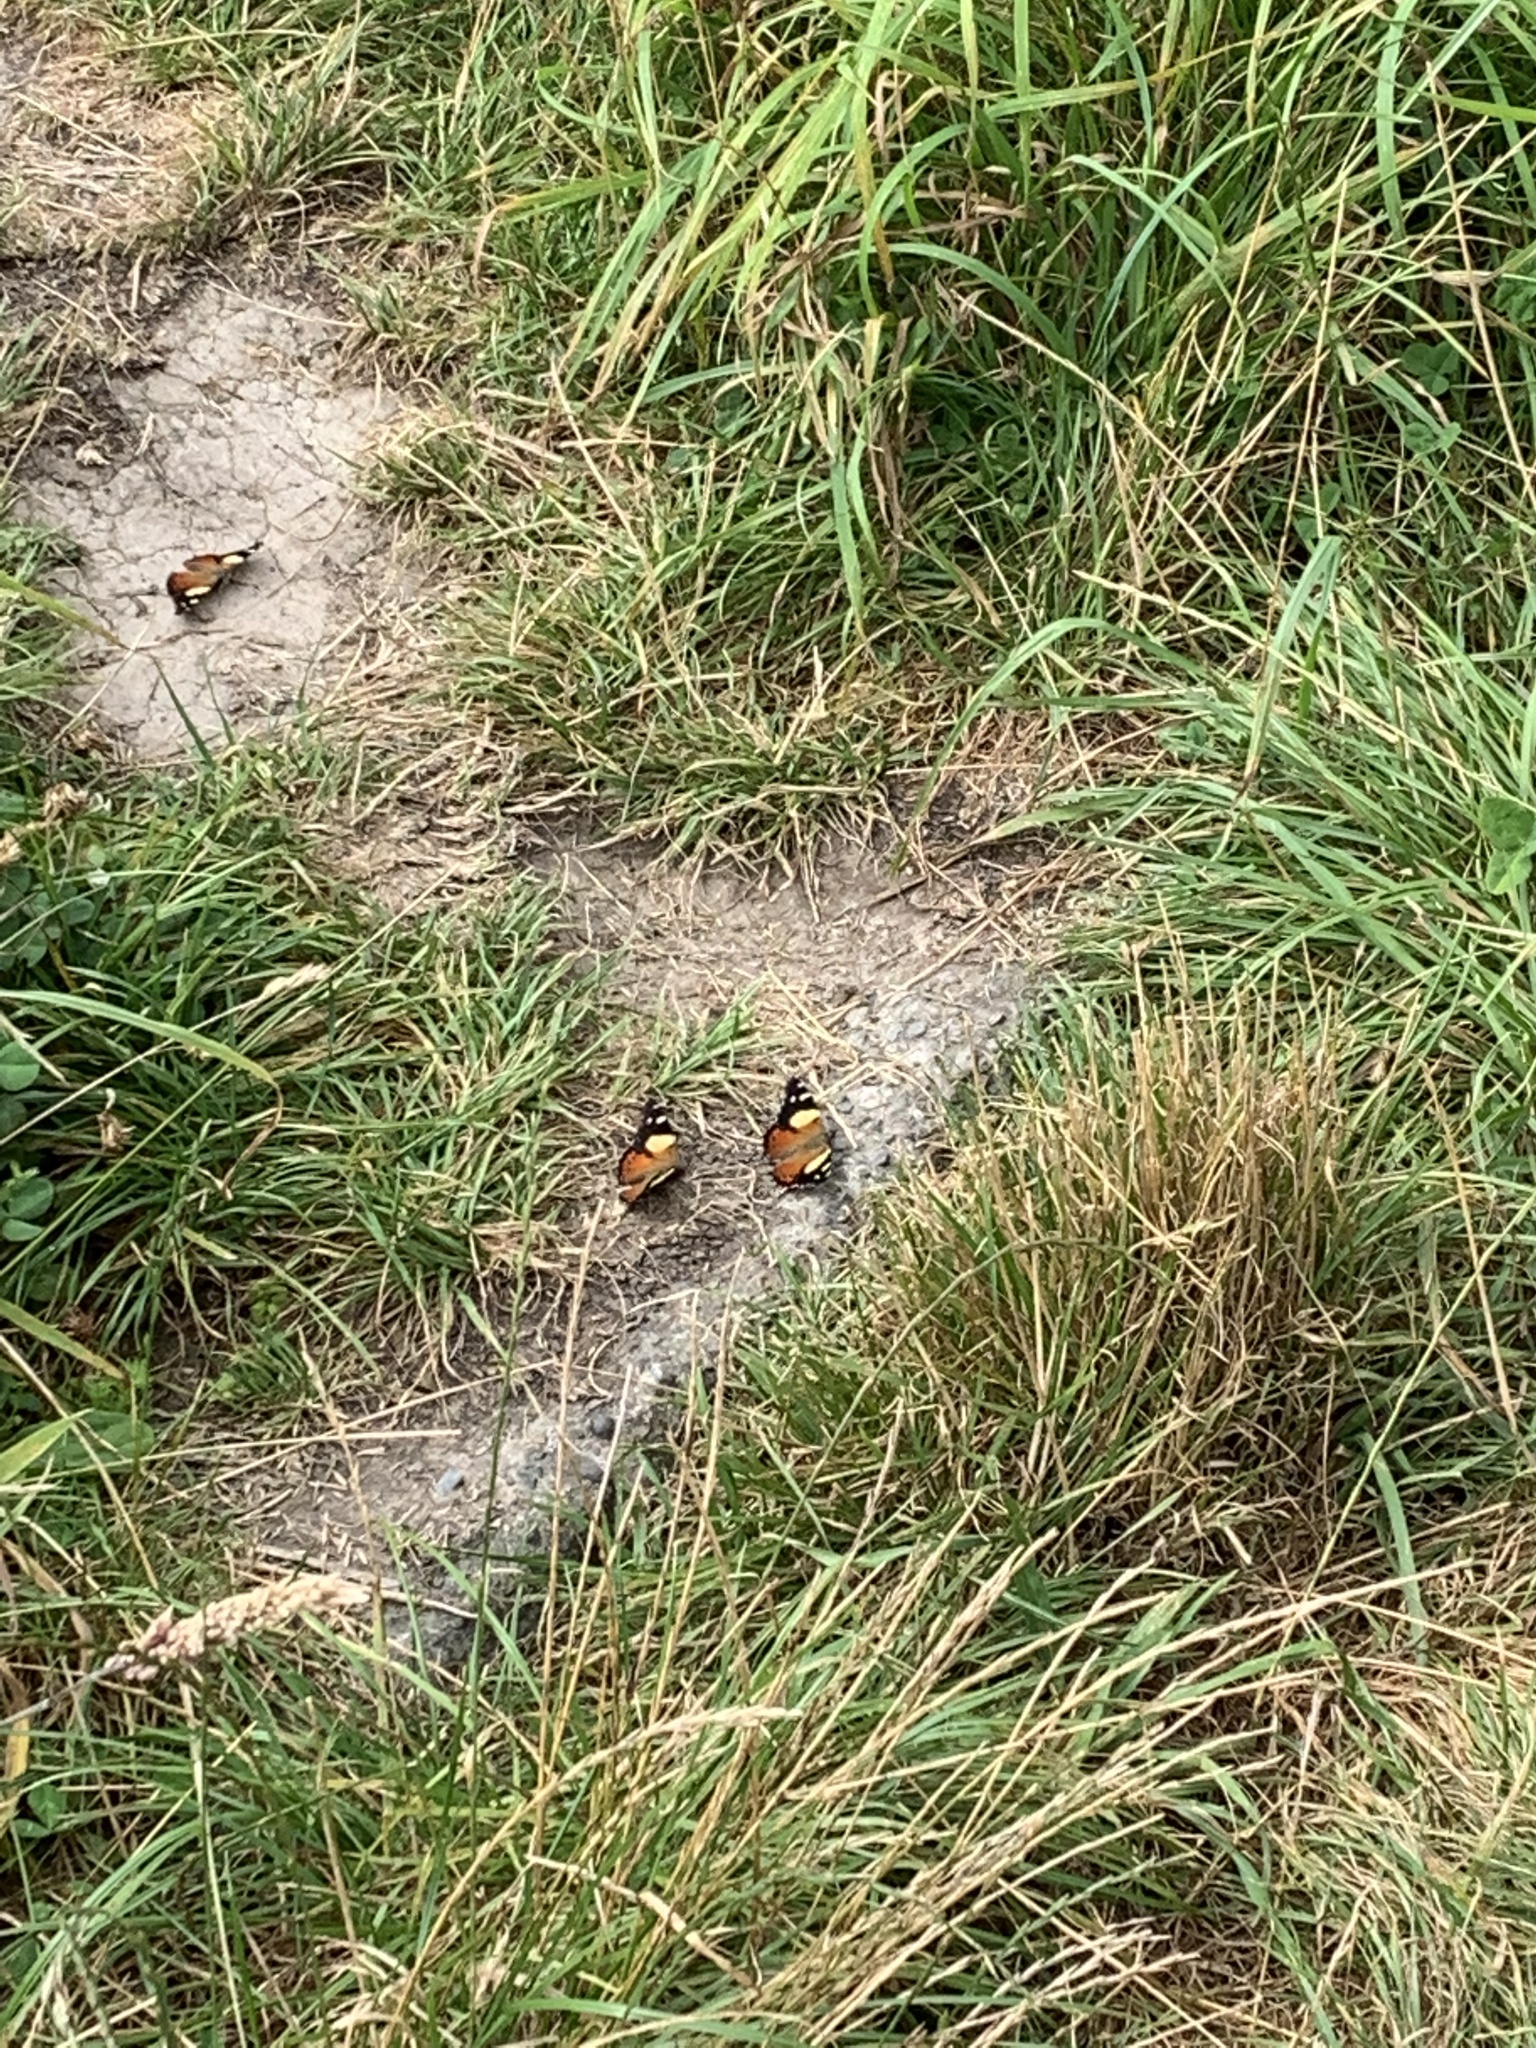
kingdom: Animalia
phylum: Arthropoda
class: Insecta
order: Lepidoptera
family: Nymphalidae
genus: Vanessa
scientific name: Vanessa itea
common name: Yellow admiral
